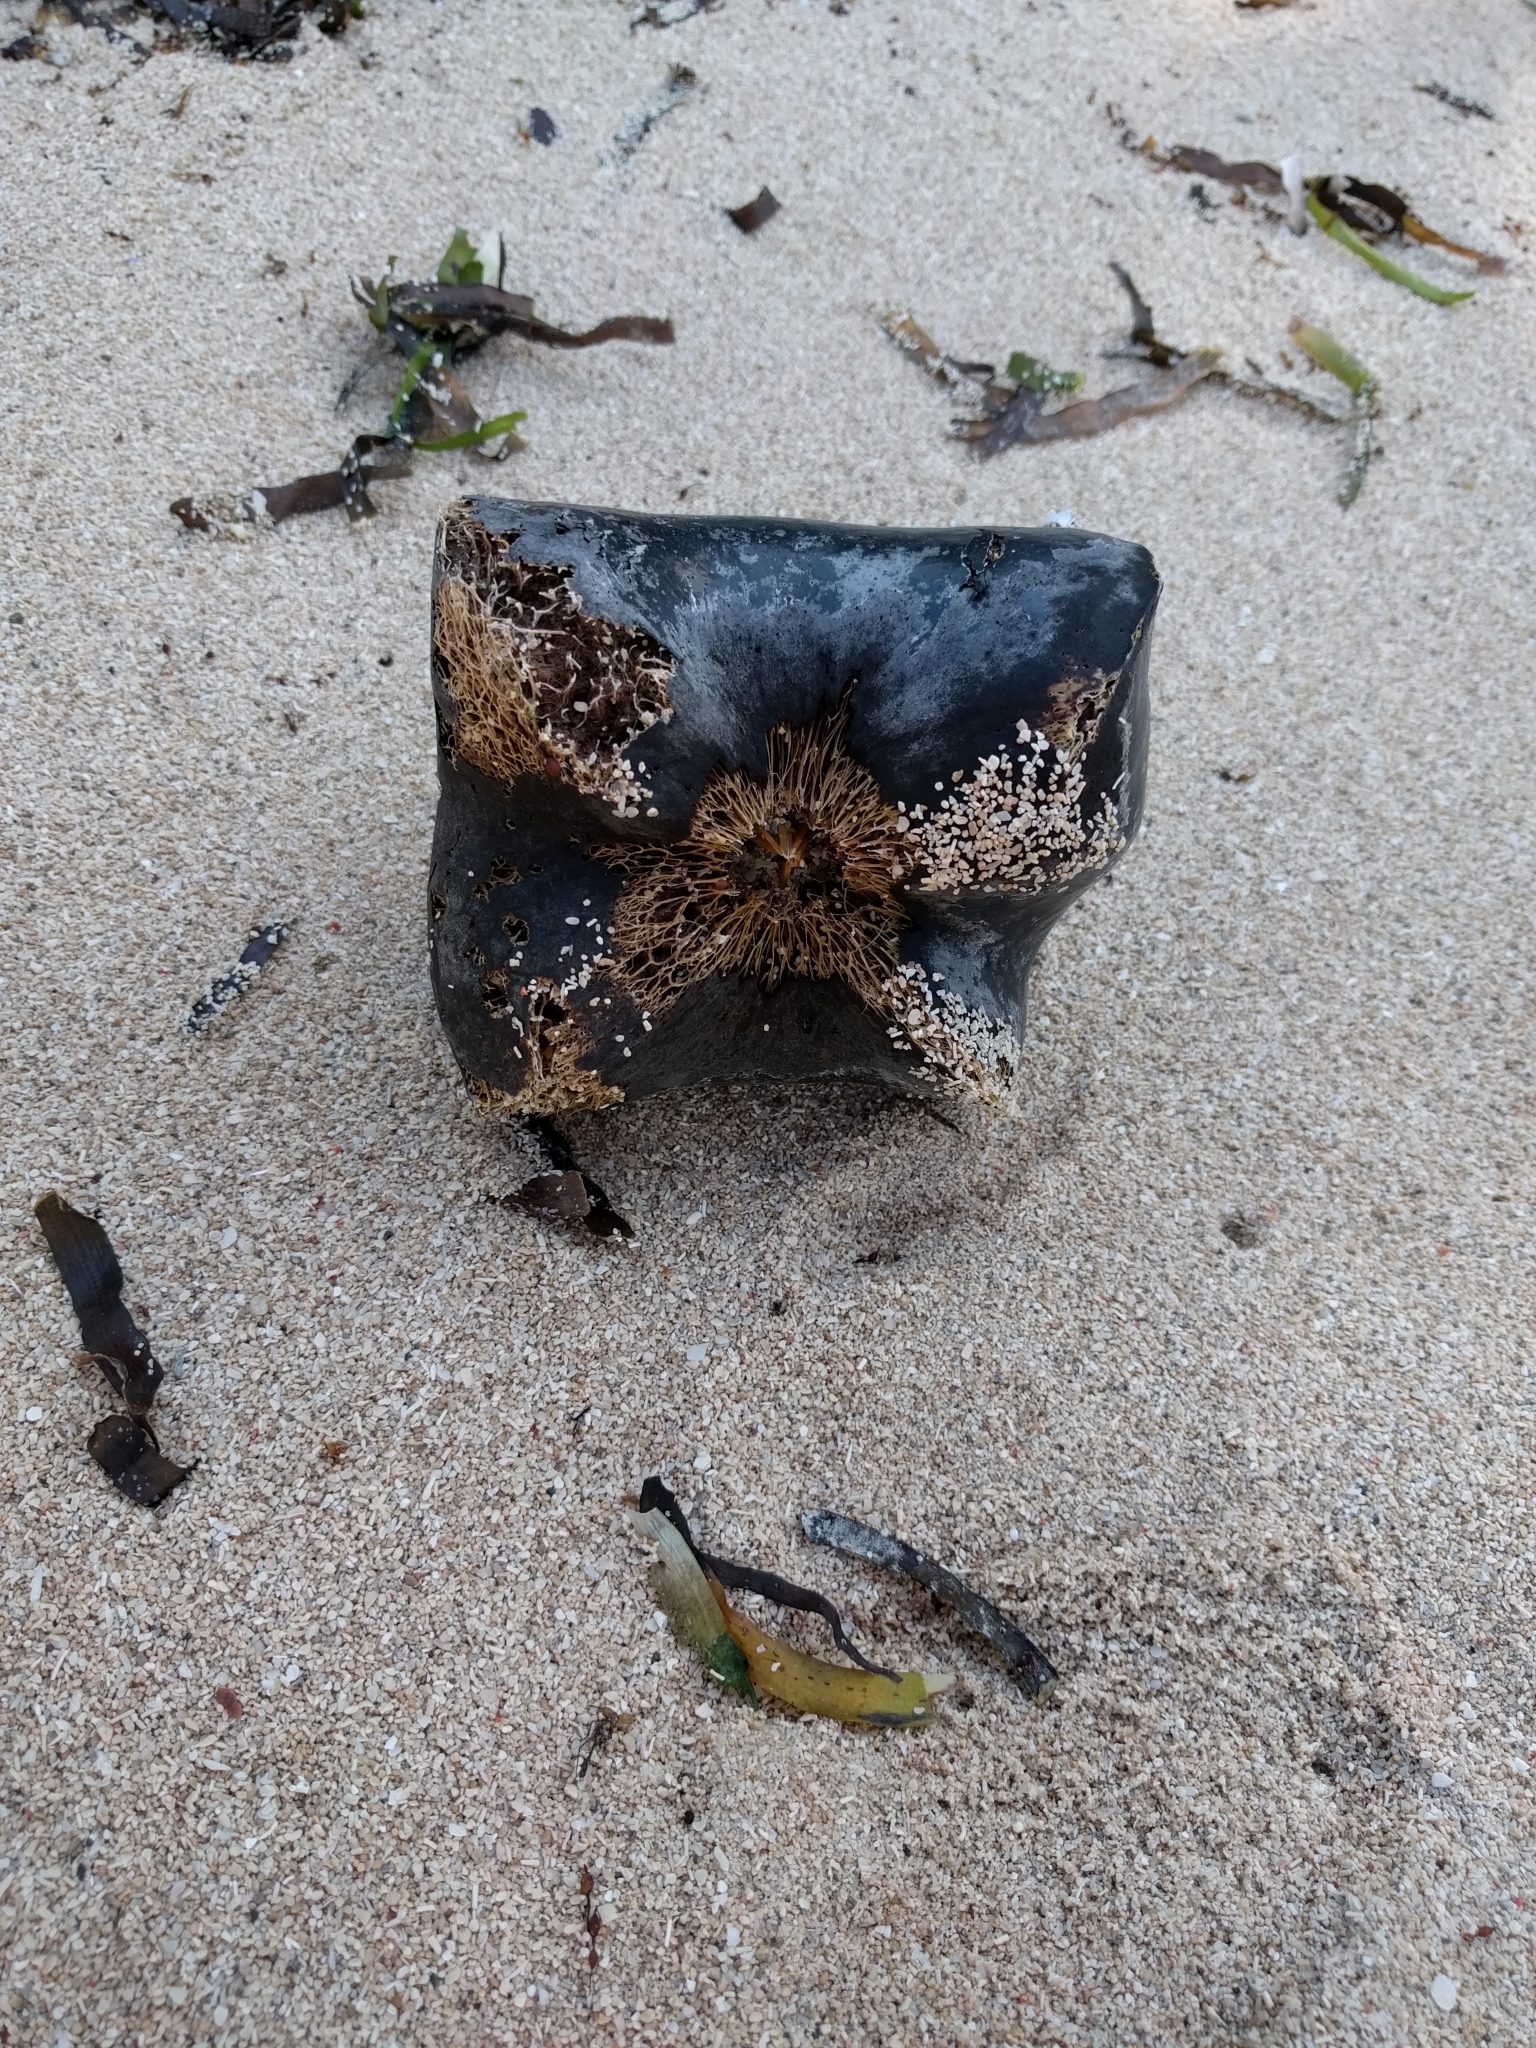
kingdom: Plantae
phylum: Tracheophyta
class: Magnoliopsida
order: Ericales
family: Lecythidaceae
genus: Barringtonia
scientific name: Barringtonia asiatica
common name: Mango-pine
